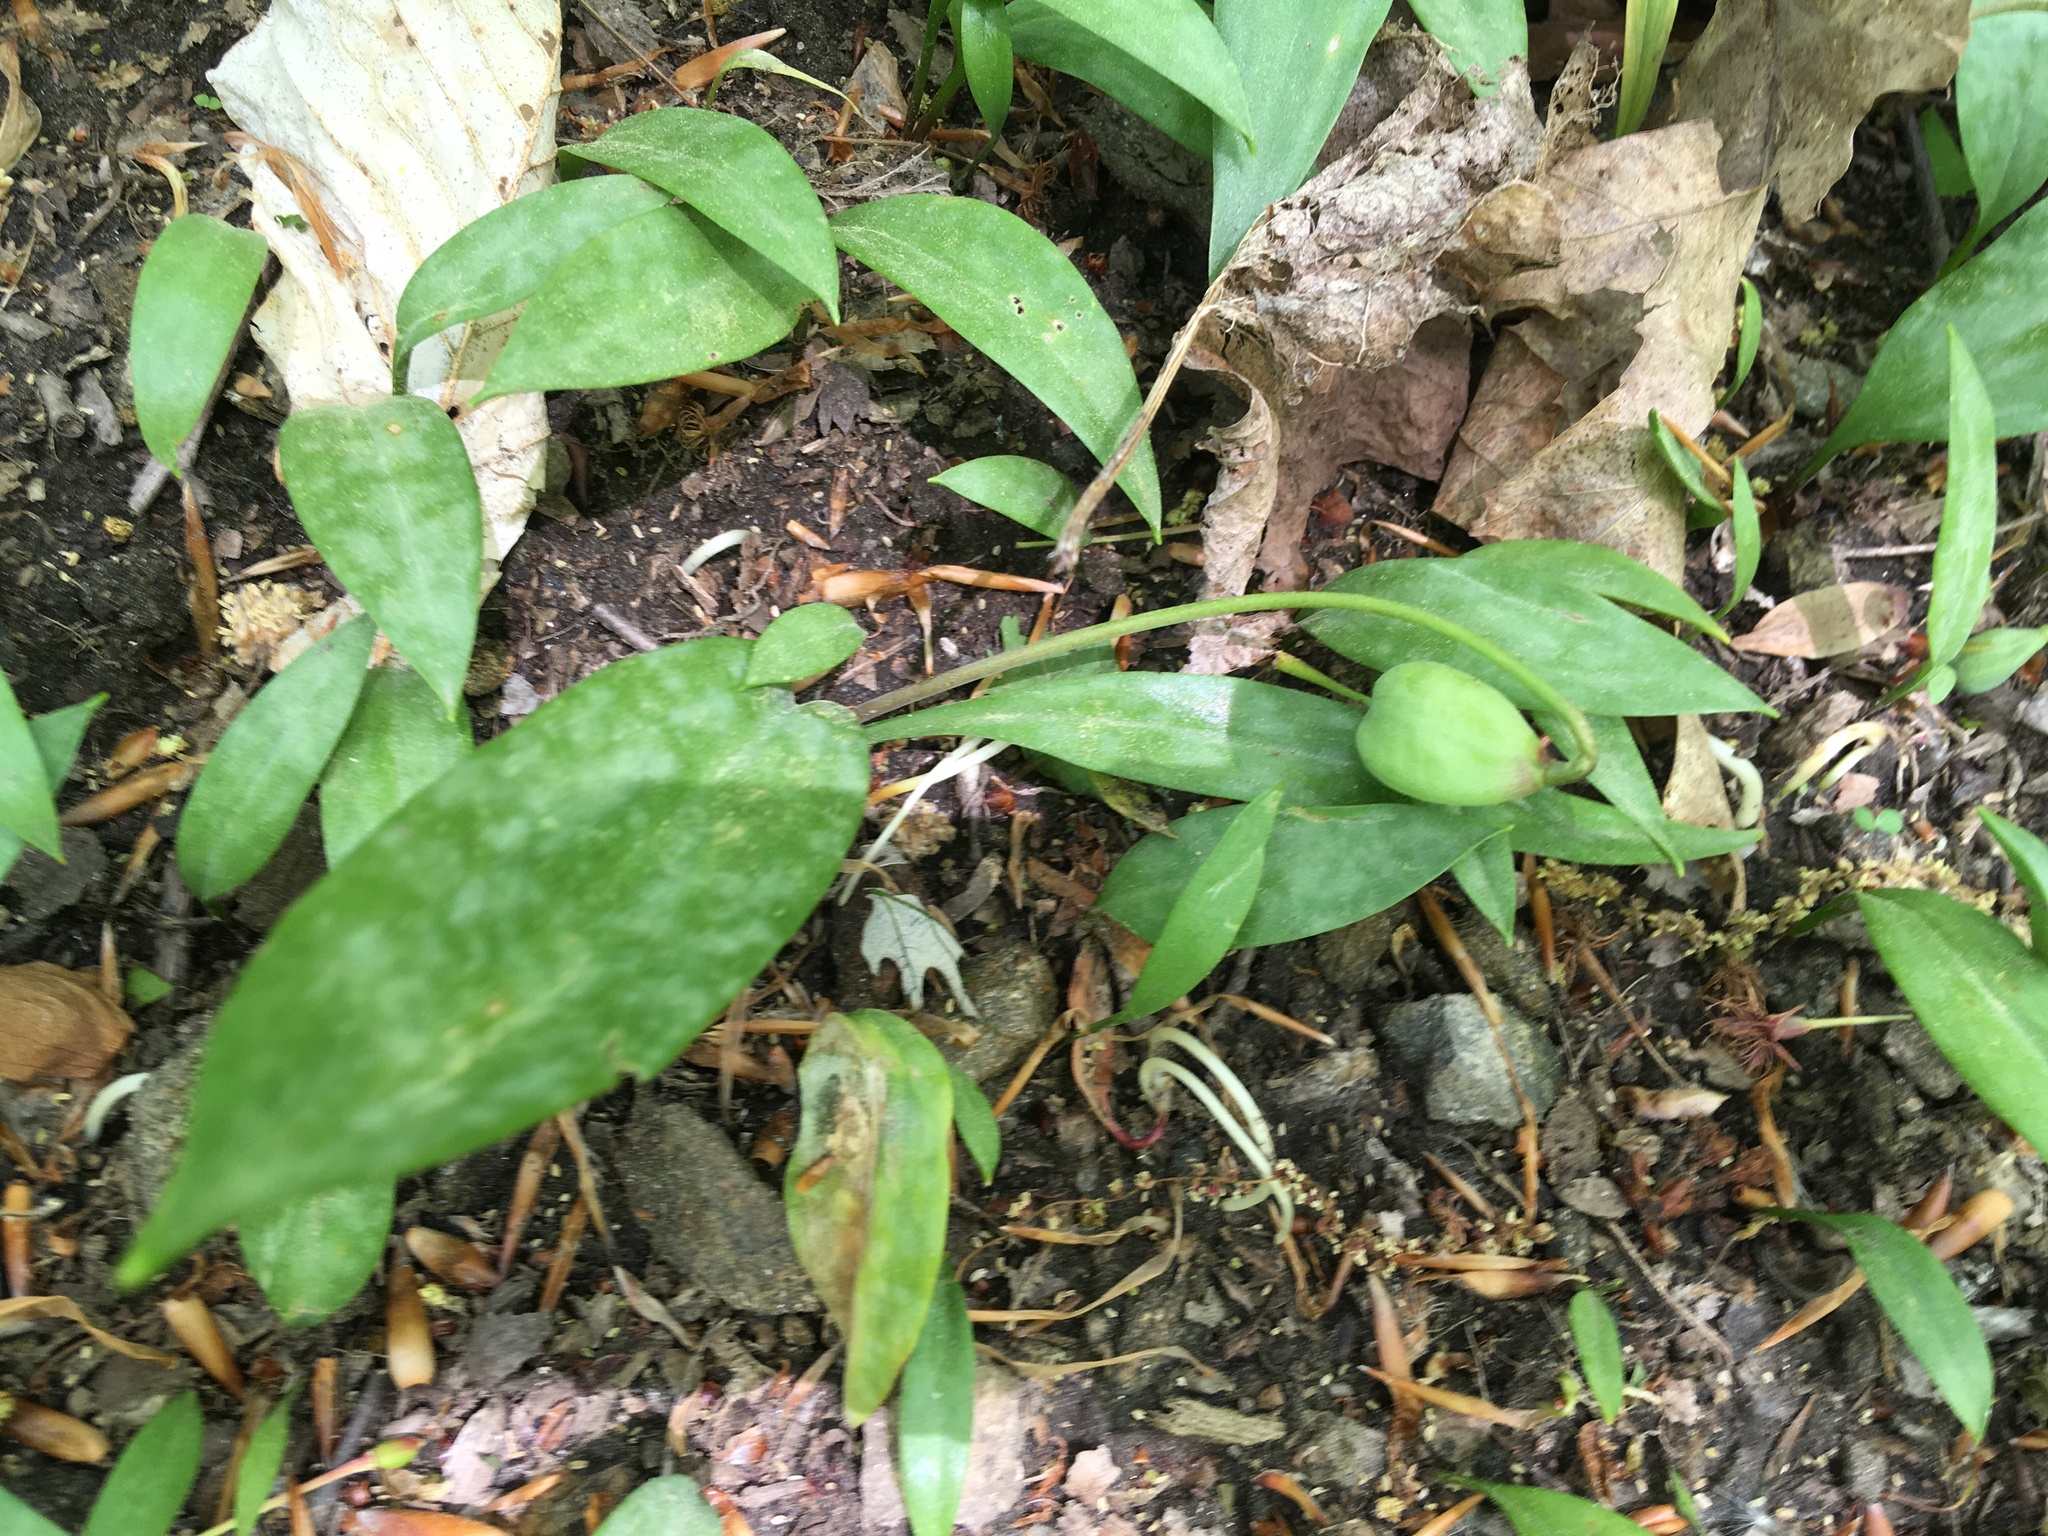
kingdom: Plantae
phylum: Tracheophyta
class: Liliopsida
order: Liliales
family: Liliaceae
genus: Erythronium
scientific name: Erythronium americanum
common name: Yellow adder's-tongue
